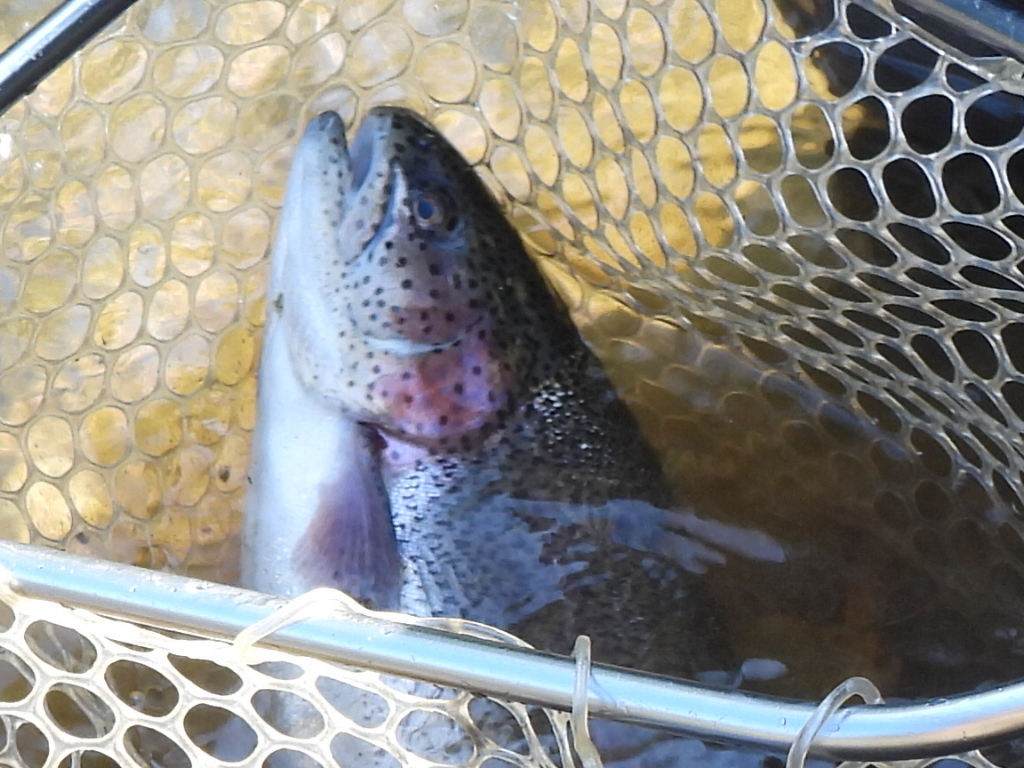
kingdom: Animalia
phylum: Chordata
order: Salmoniformes
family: Salmonidae
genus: Oncorhynchus
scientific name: Oncorhynchus mykiss
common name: Rainbow trout
